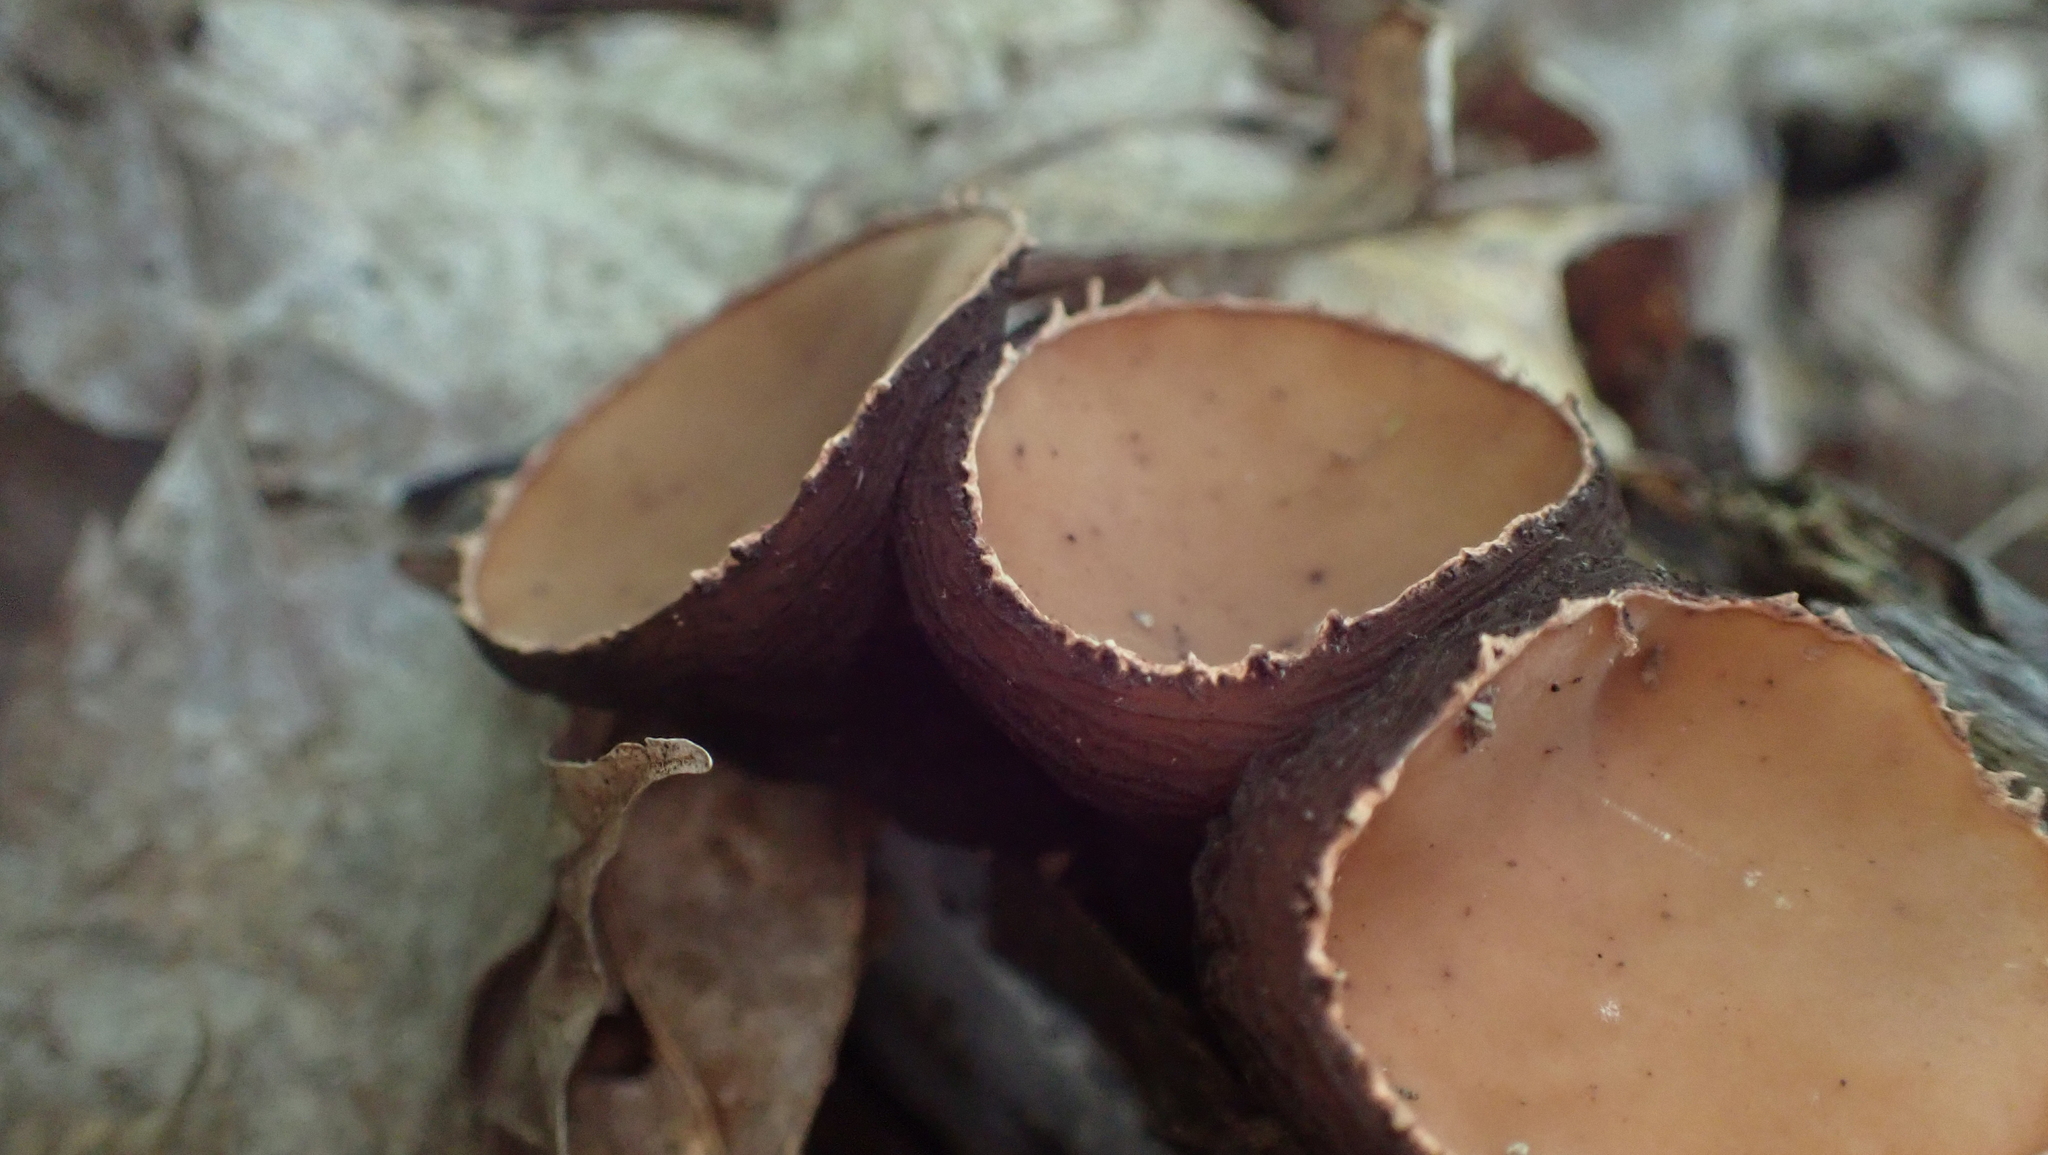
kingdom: Fungi
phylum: Ascomycota
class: Pezizomycetes
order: Pezizales
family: Sarcosomataceae
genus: Galiella
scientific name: Galiella rufa
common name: Hairy rubber cup
